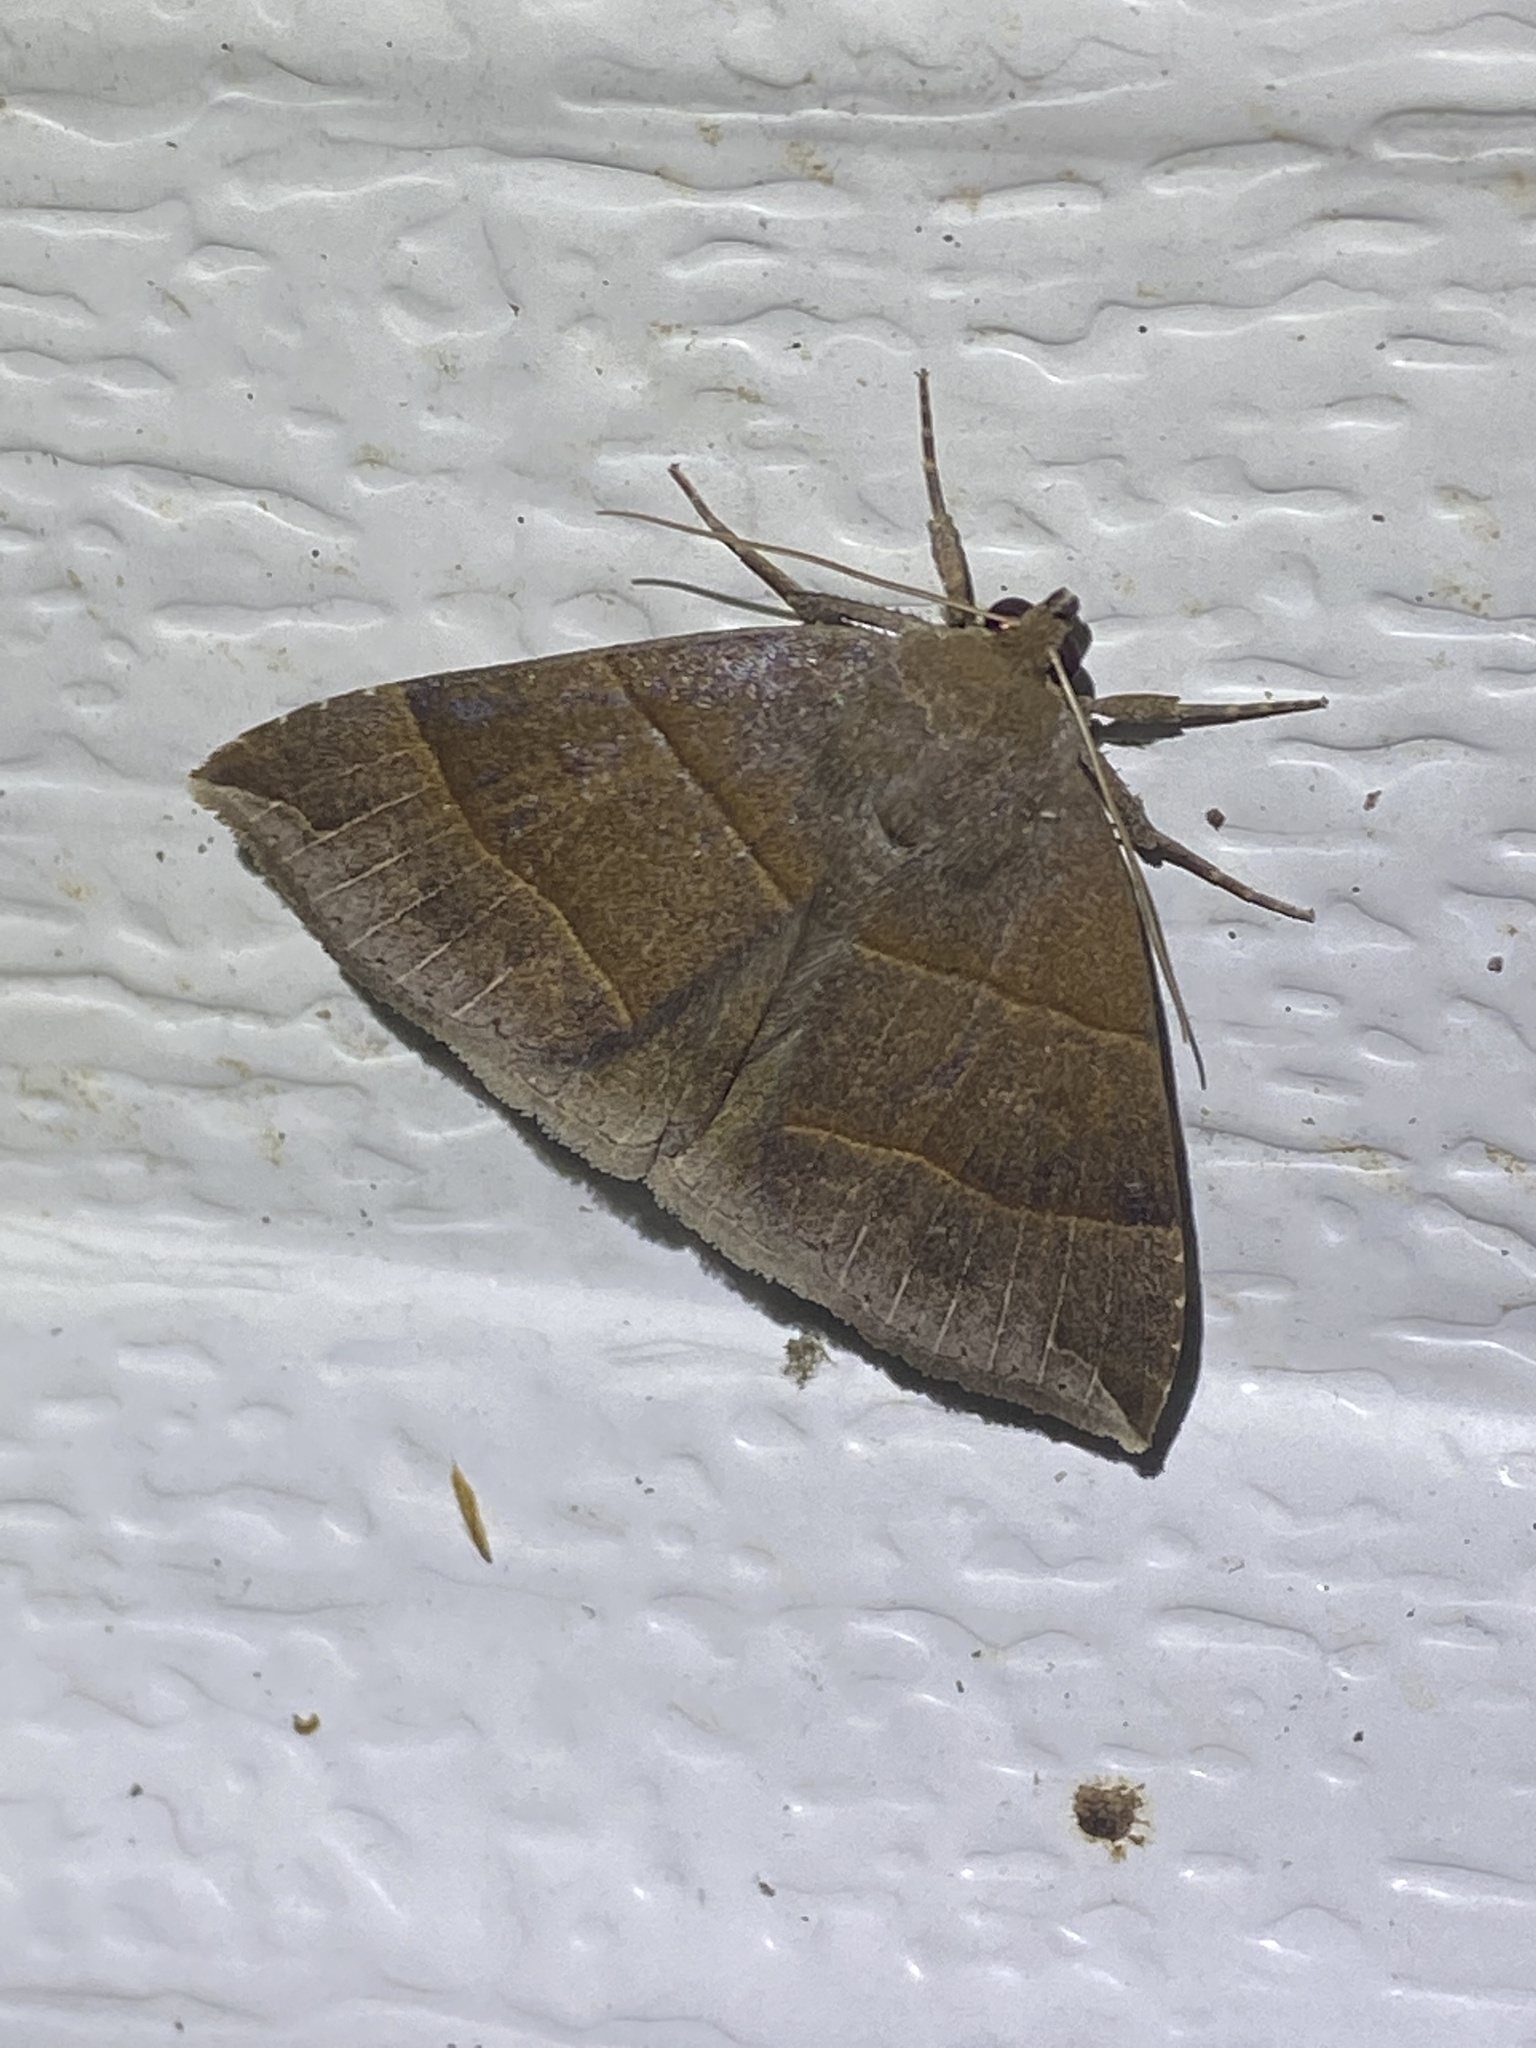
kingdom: Animalia
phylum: Arthropoda
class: Insecta
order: Lepidoptera
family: Erebidae
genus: Parallelia
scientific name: Parallelia bistriaris
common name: Maple looper moth
